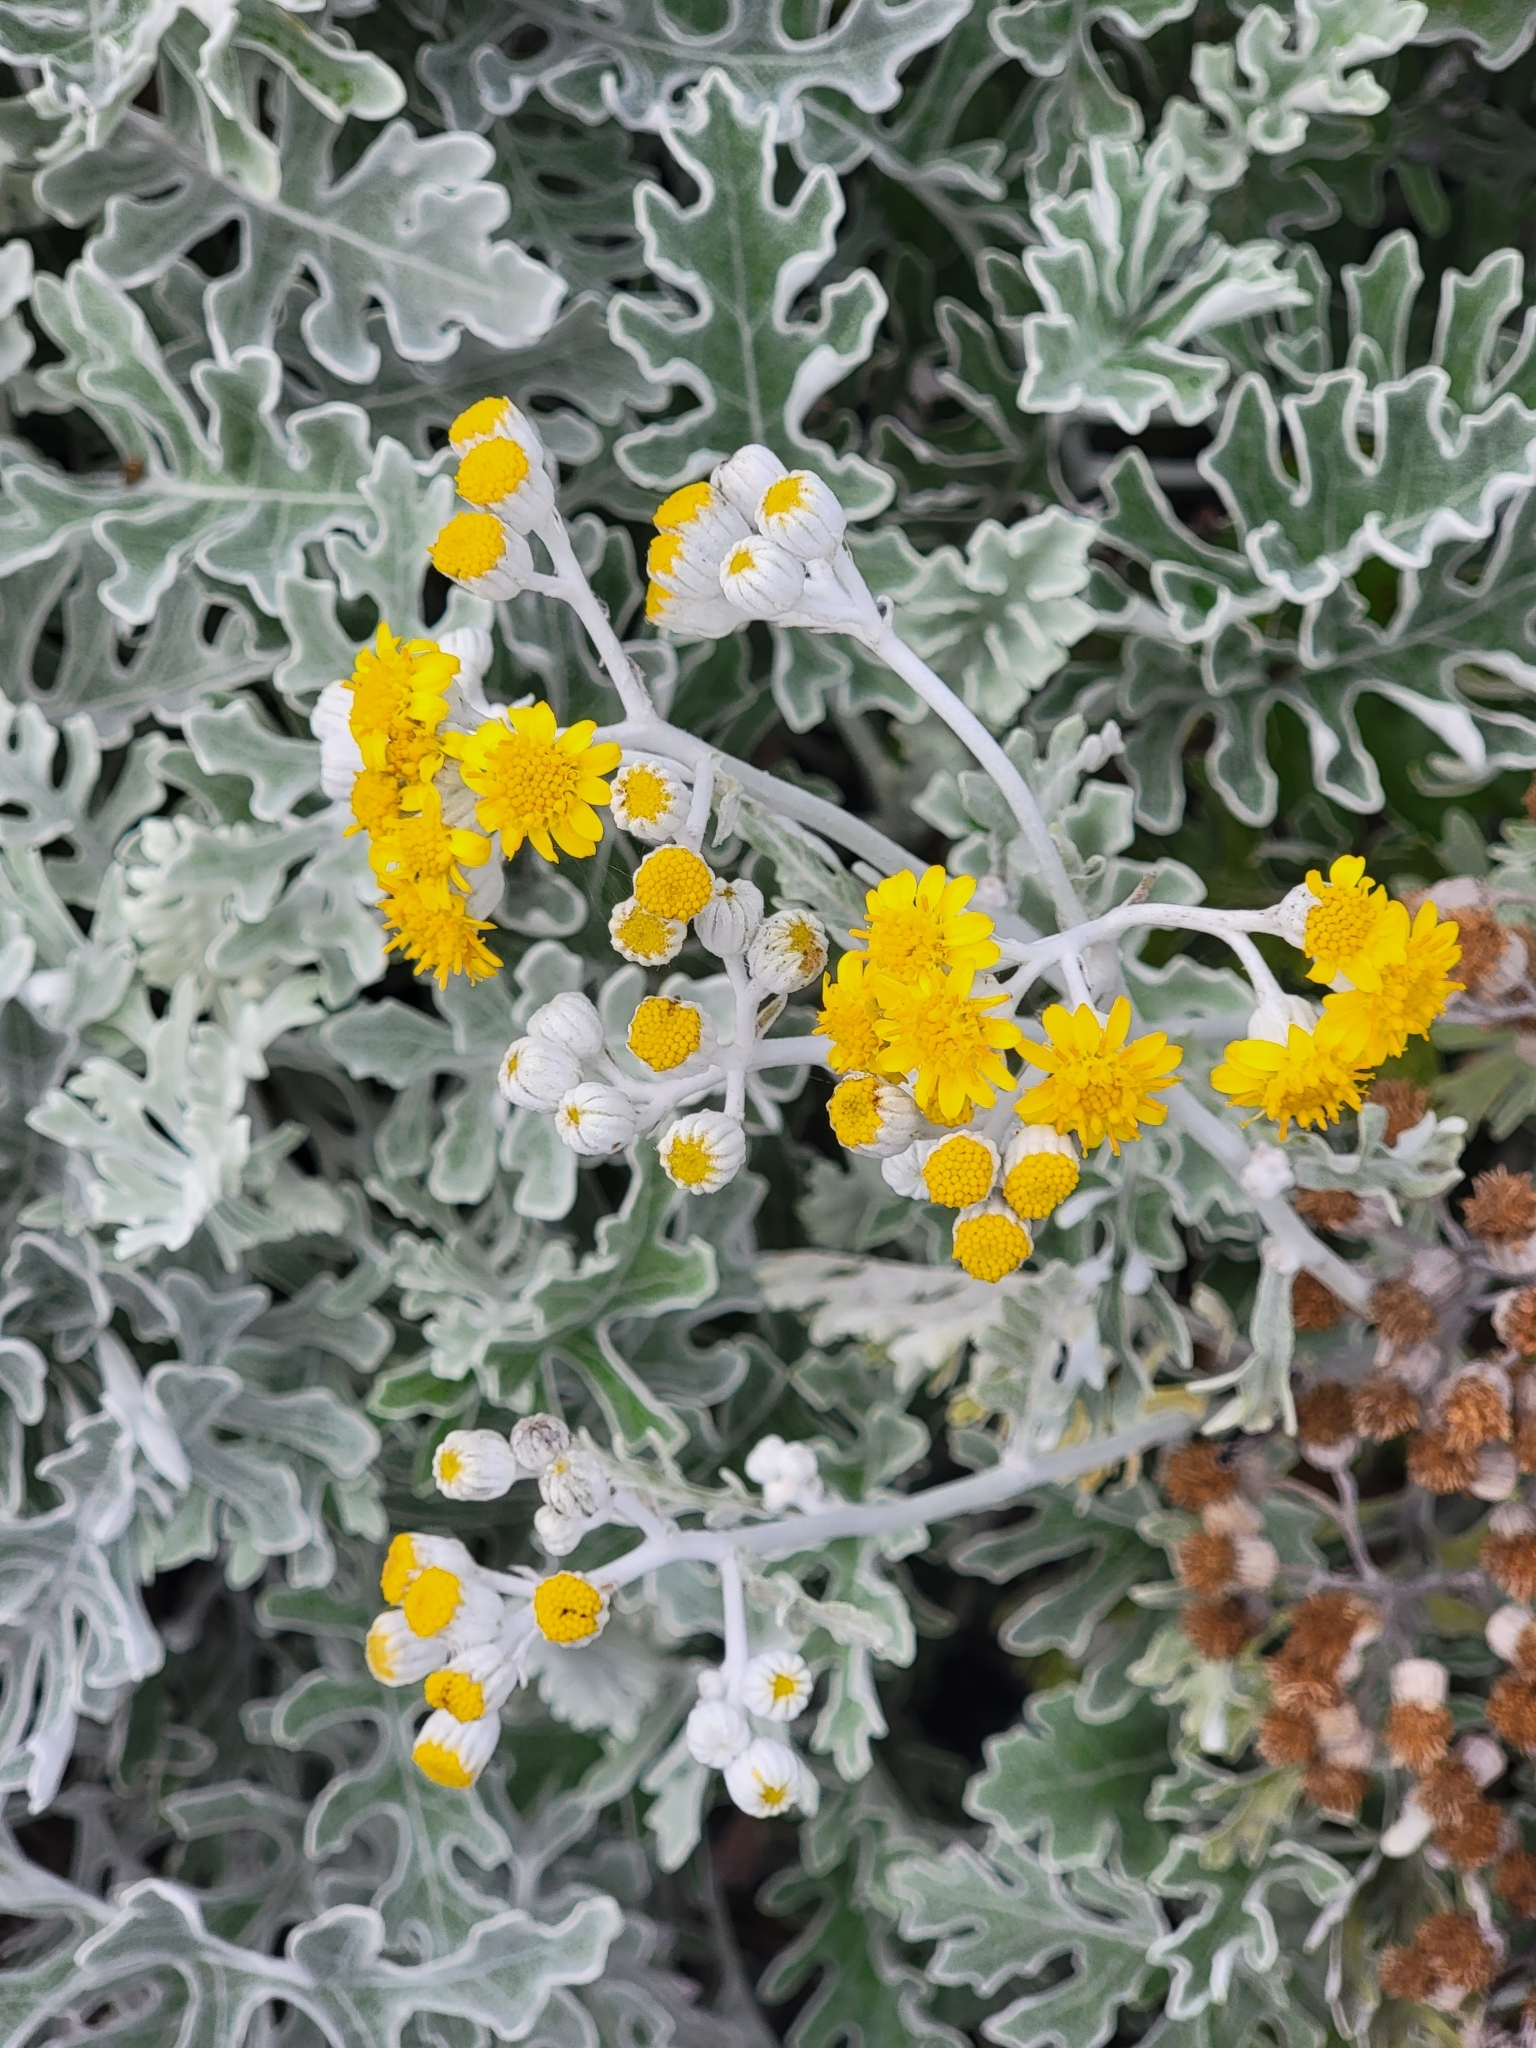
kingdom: Plantae
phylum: Tracheophyta
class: Magnoliopsida
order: Asterales
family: Asteraceae
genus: Jacobaea
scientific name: Jacobaea maritima
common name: Silver ragwort
